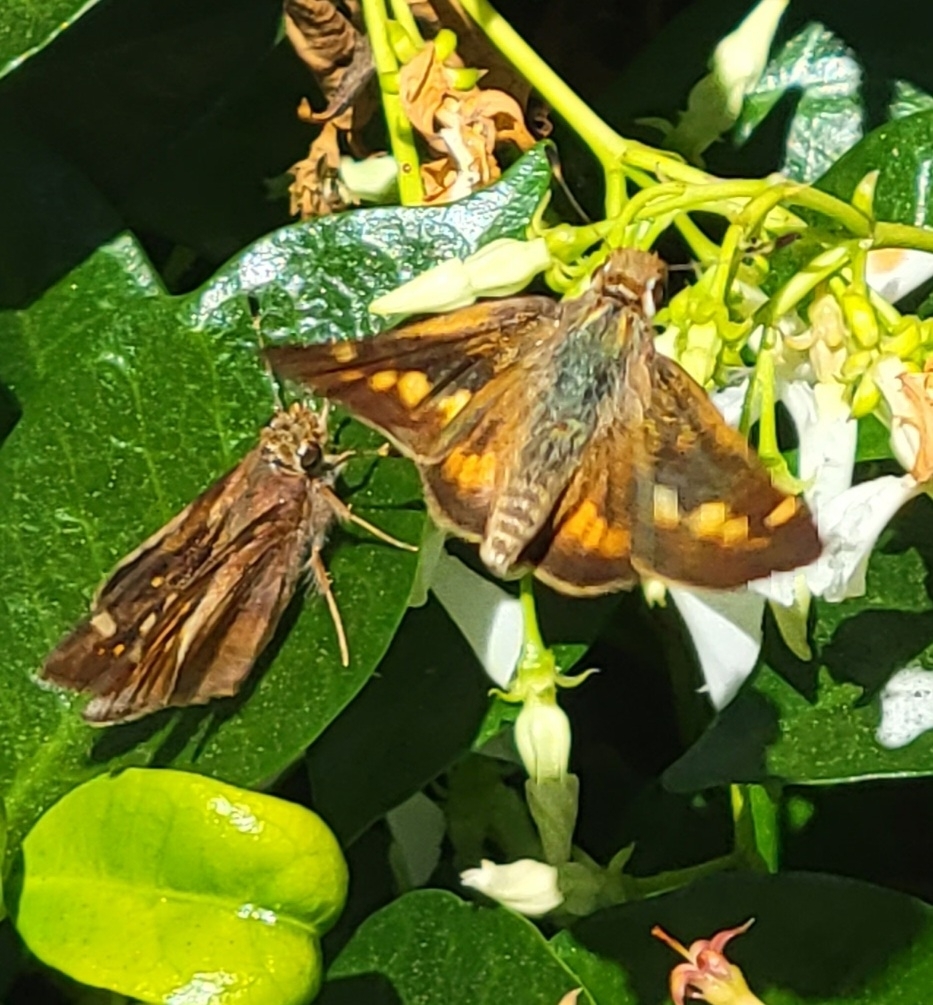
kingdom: Animalia
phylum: Arthropoda
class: Insecta
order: Lepidoptera
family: Hesperiidae
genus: Lon
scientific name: Lon melane
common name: Umber skipper
